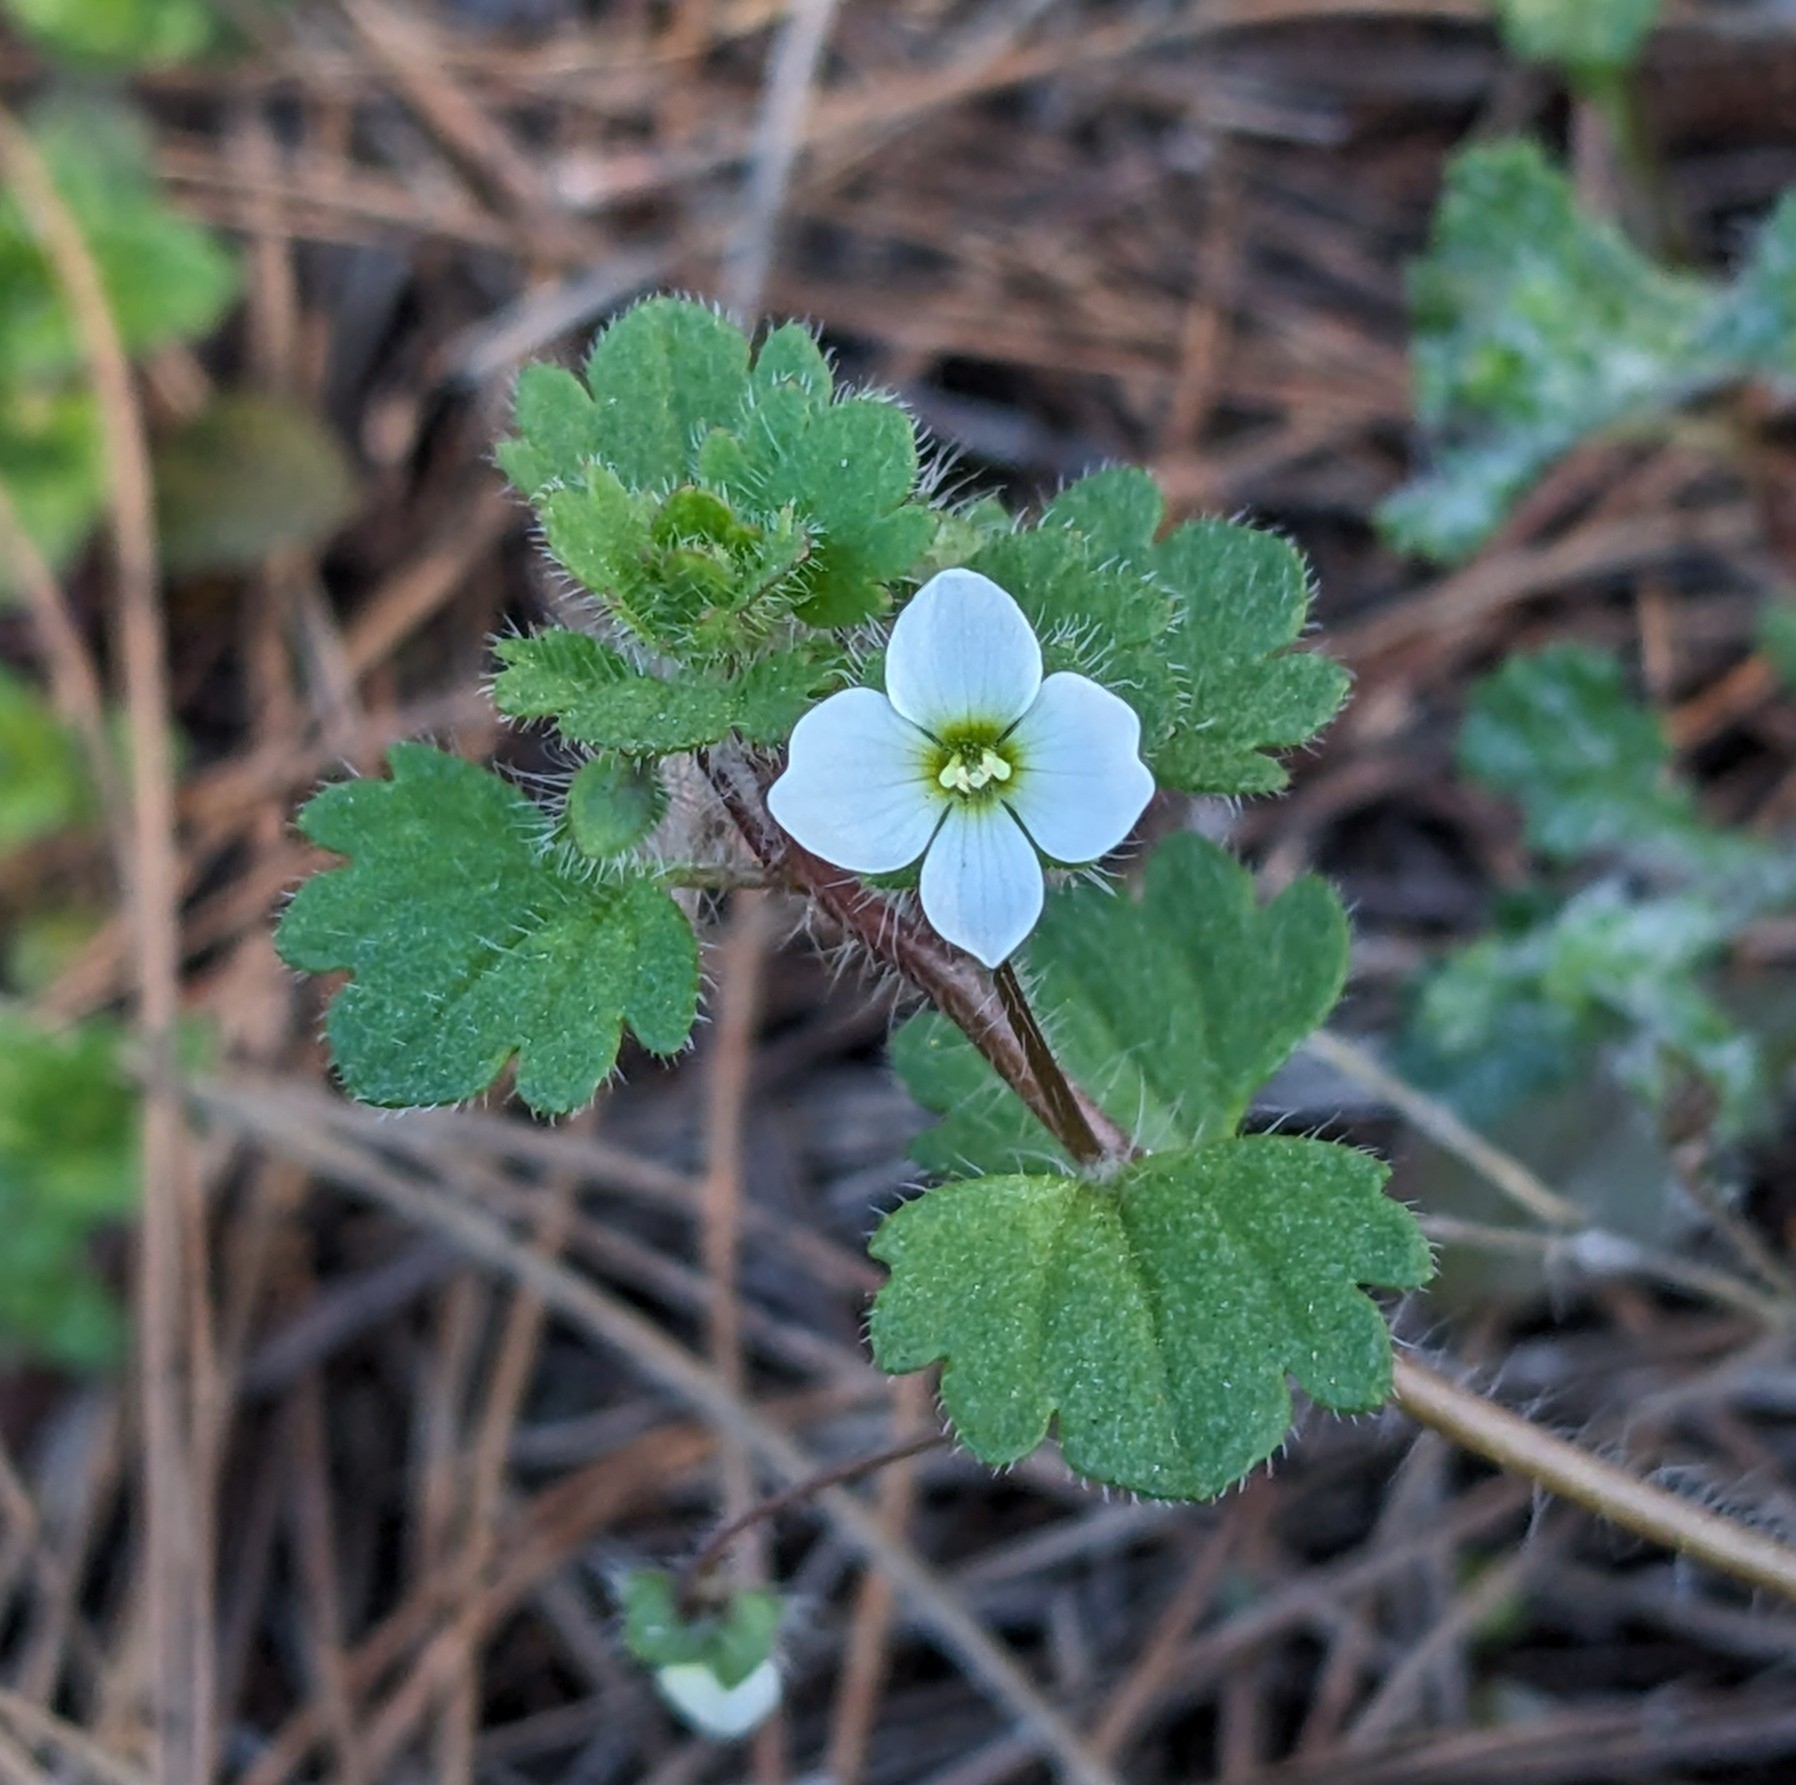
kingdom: Plantae
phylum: Tracheophyta
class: Magnoliopsida
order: Lamiales
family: Plantaginaceae
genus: Veronica
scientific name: Veronica cymbalaria
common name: Pale speedwell
